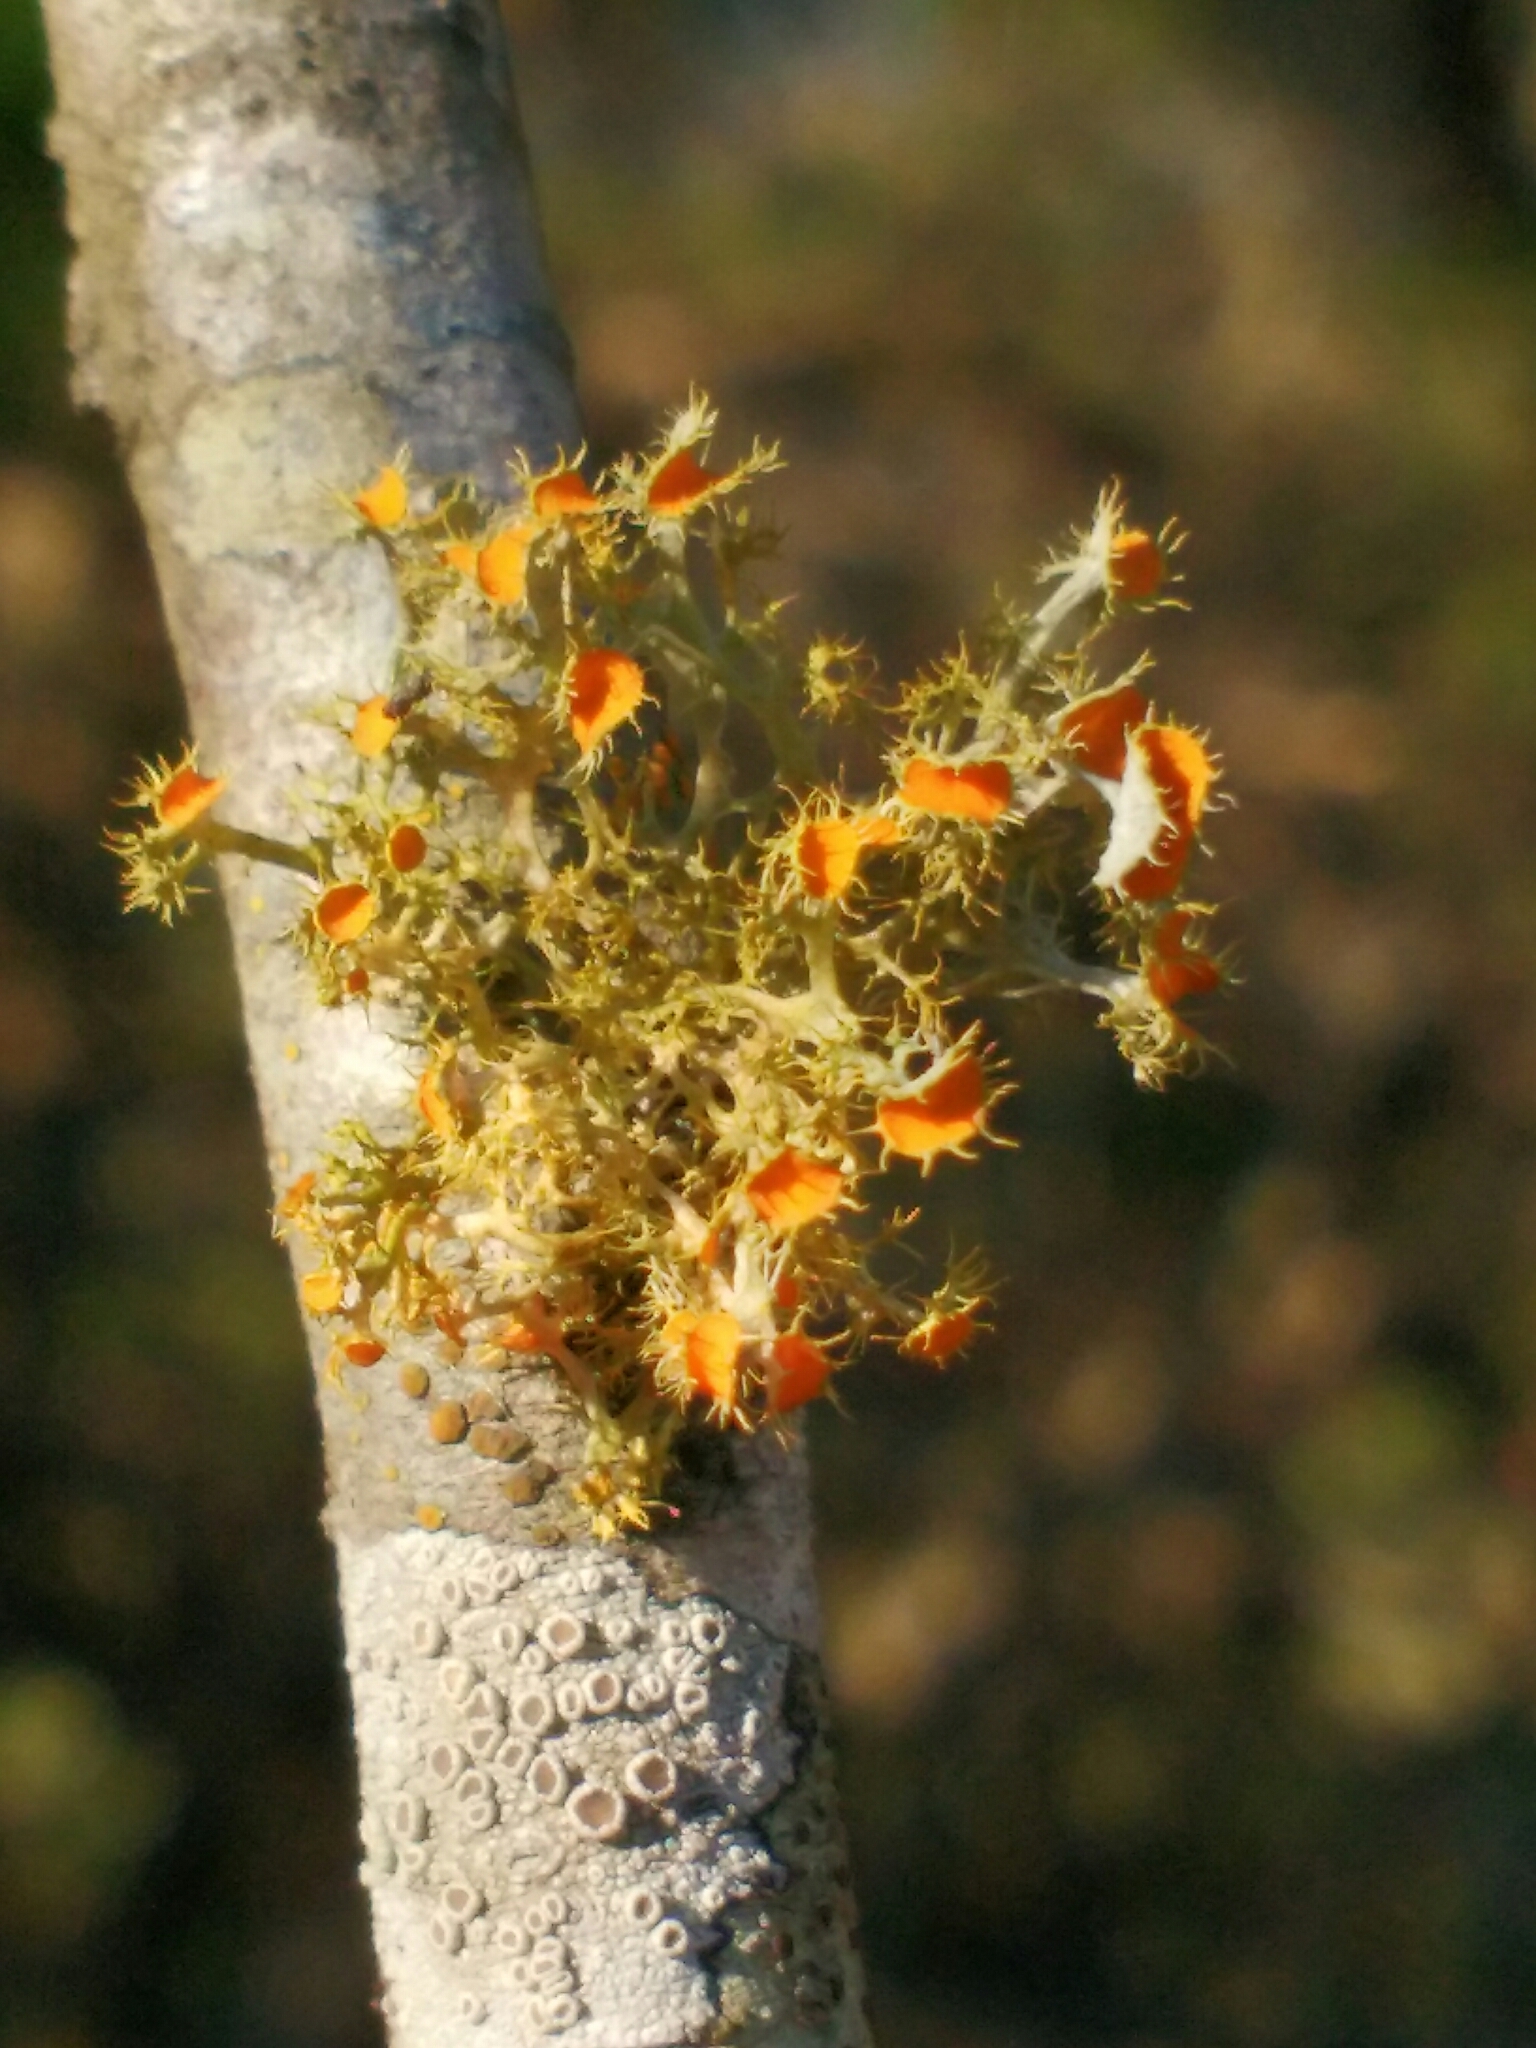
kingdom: Fungi
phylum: Ascomycota
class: Lecanoromycetes
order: Teloschistales
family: Teloschistaceae
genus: Niorma
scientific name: Niorma chrysophthalma
